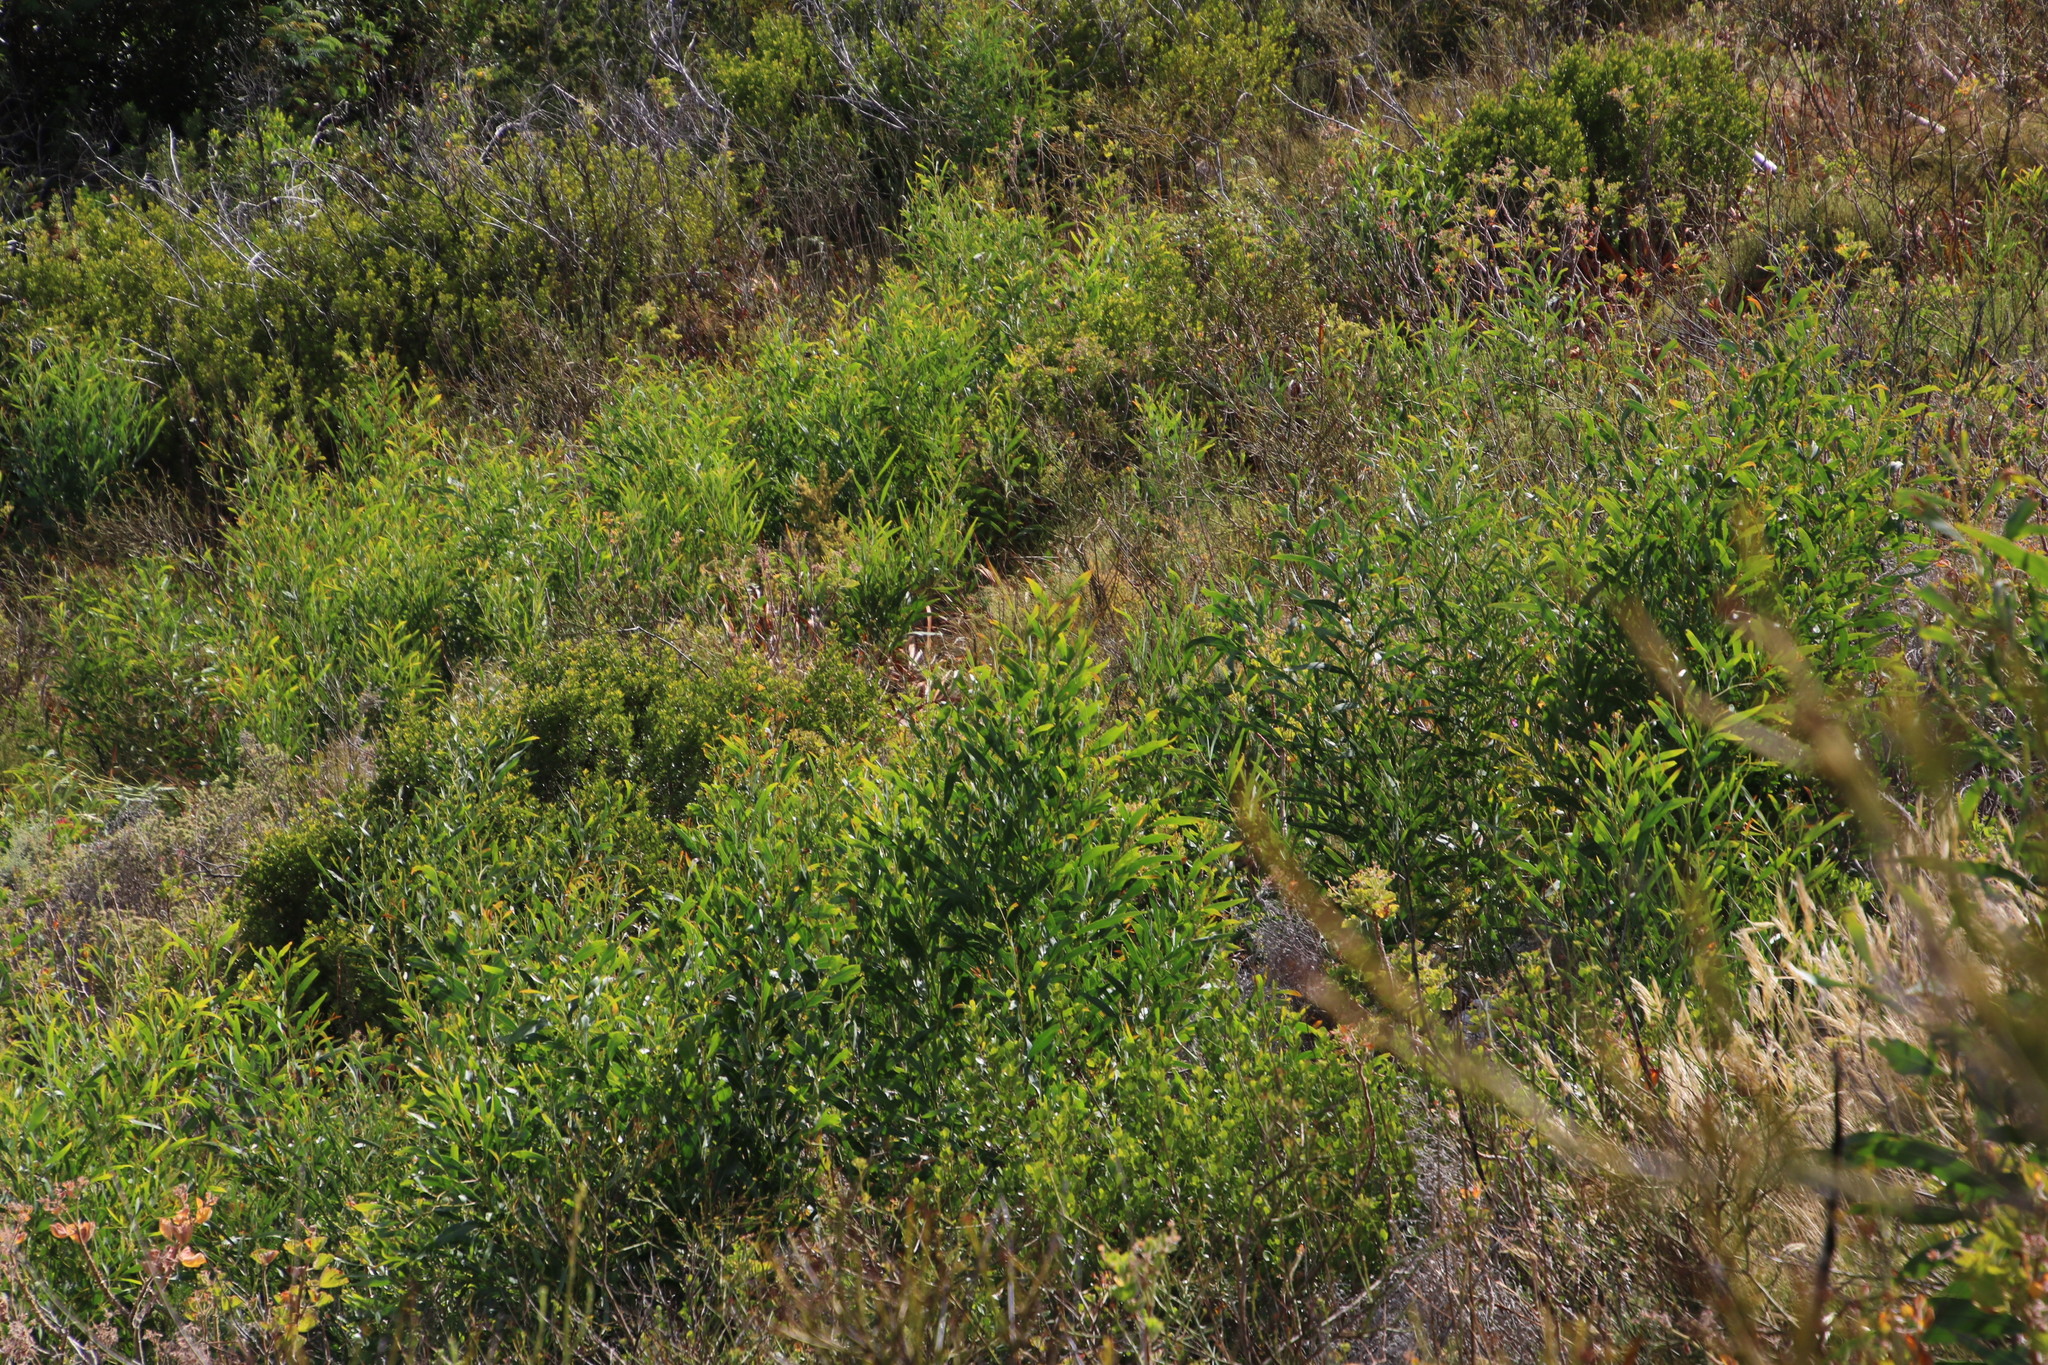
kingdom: Plantae
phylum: Tracheophyta
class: Magnoliopsida
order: Fabales
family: Fabaceae
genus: Acacia
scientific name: Acacia saligna
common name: Orange wattle
